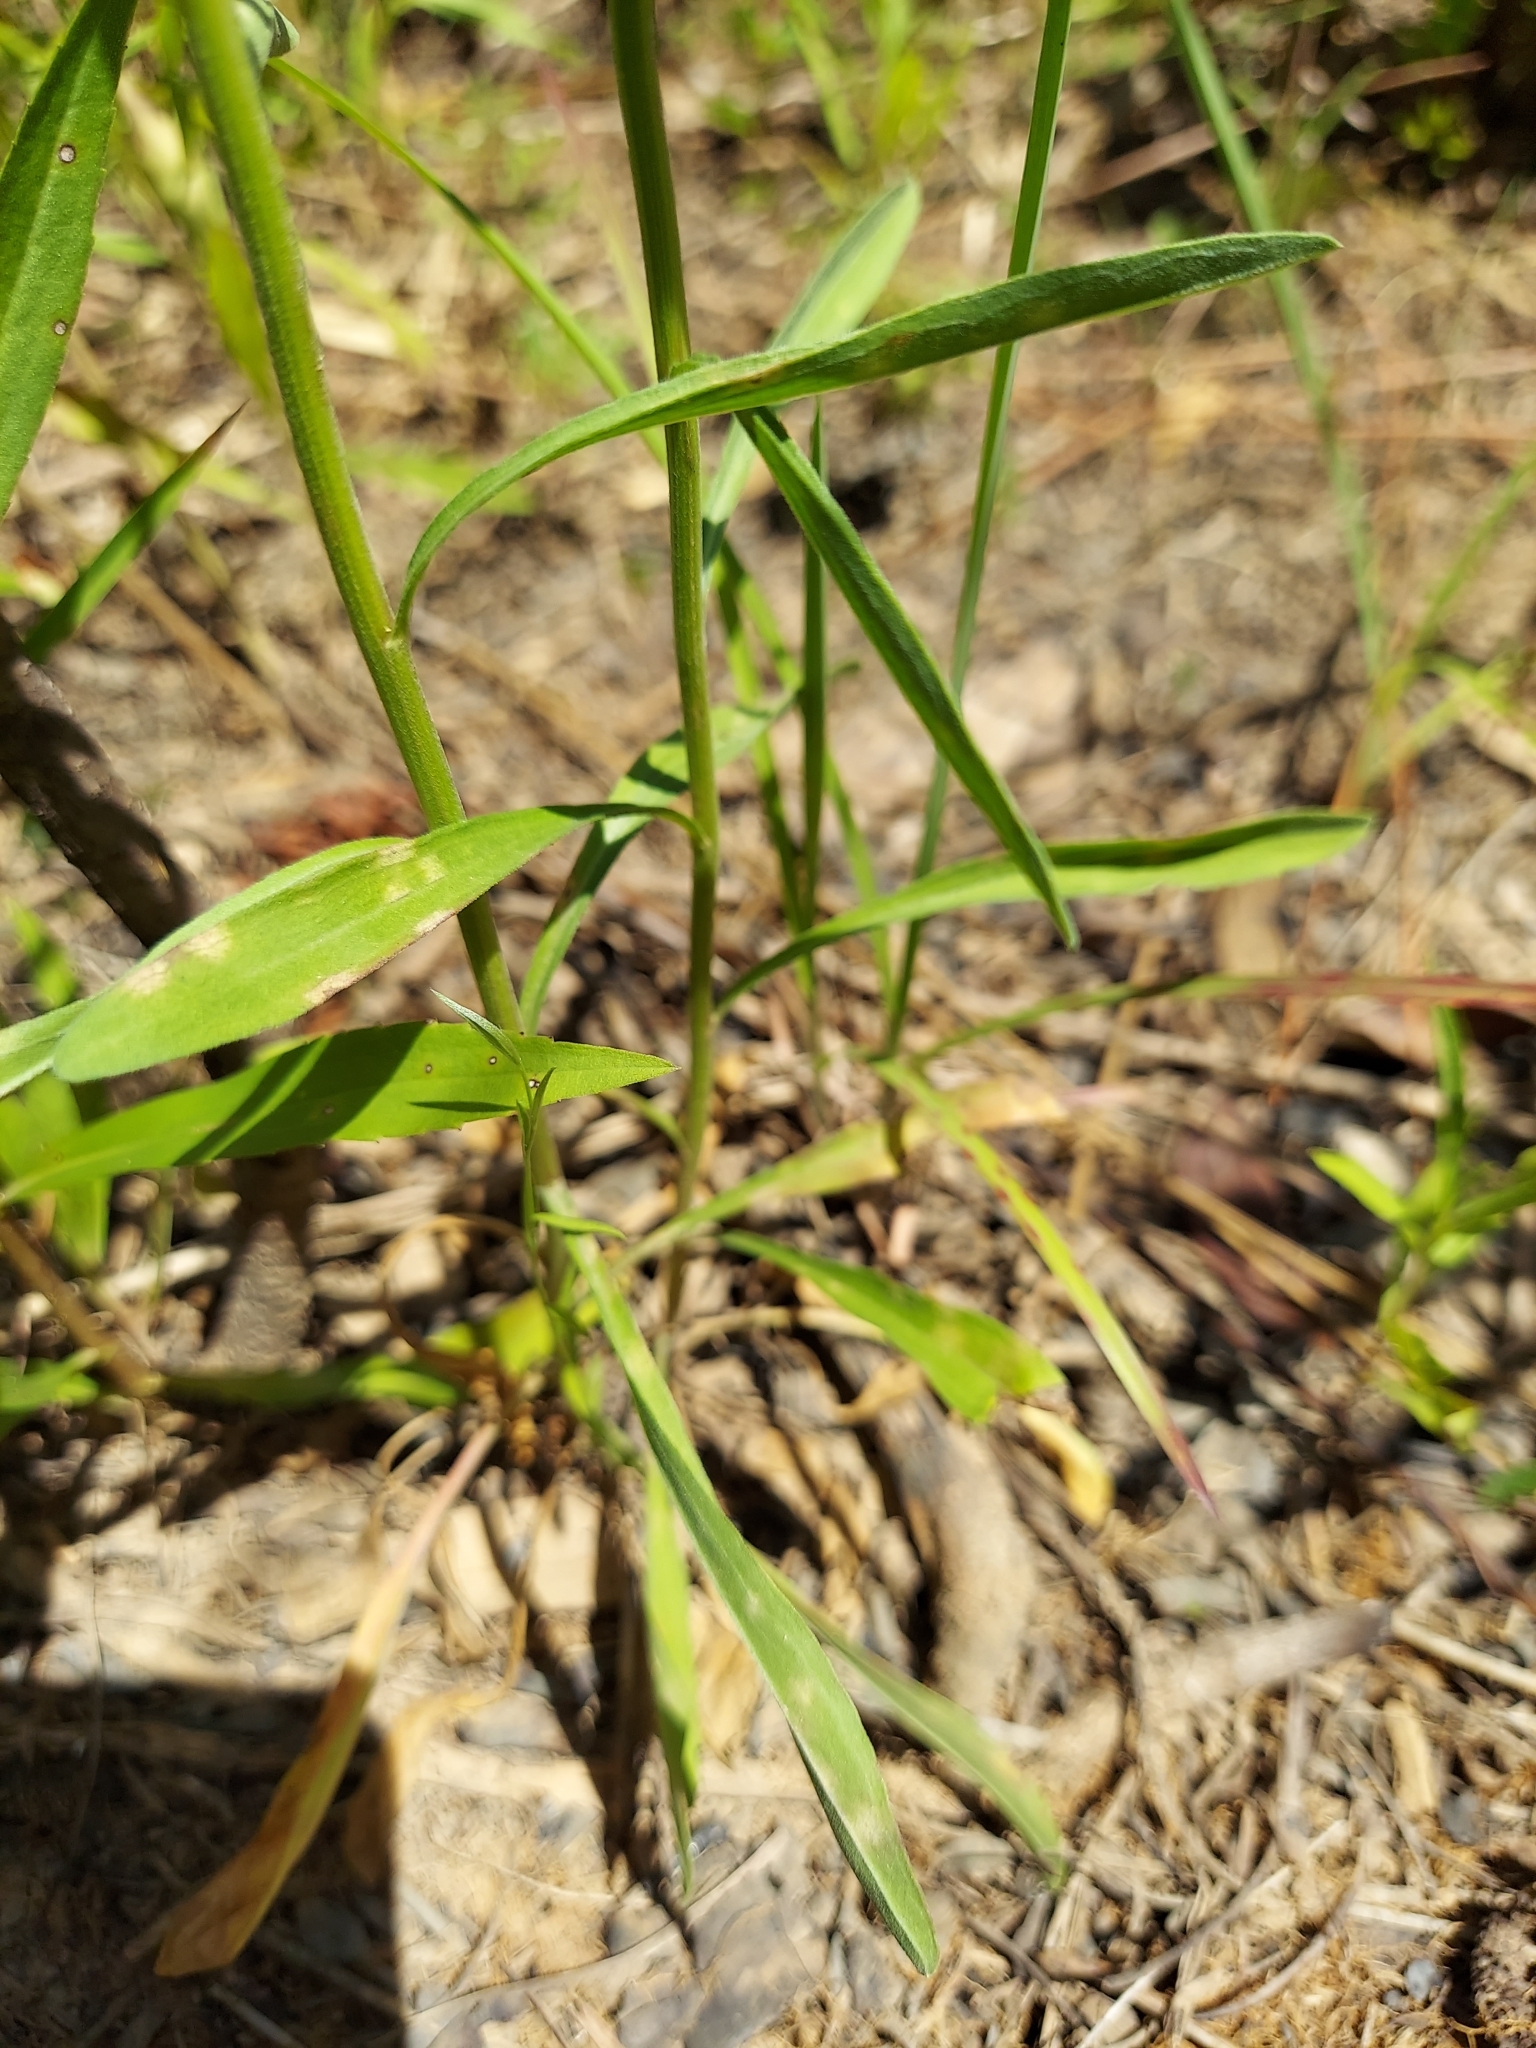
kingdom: Plantae
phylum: Tracheophyta
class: Magnoliopsida
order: Asterales
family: Asteraceae
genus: Erigeron
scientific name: Erigeron strigosus
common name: Common eastern fleabane
